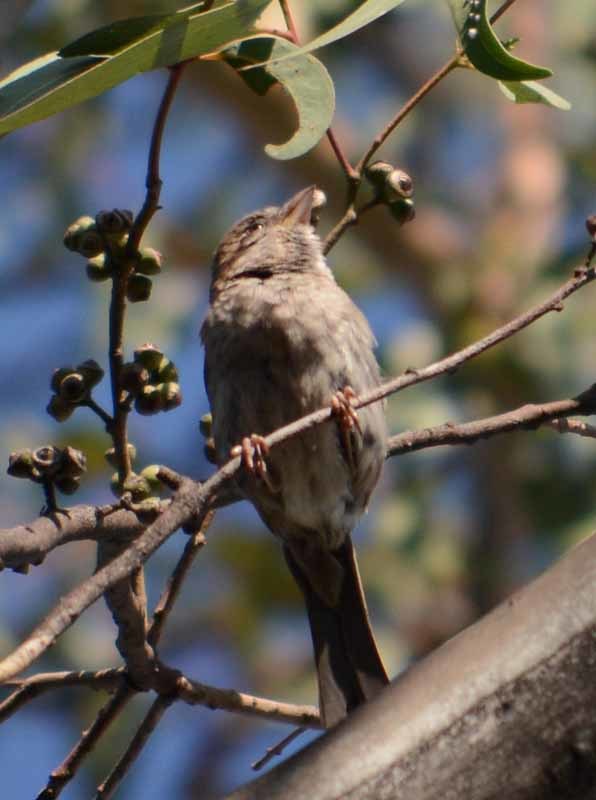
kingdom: Animalia
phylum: Chordata
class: Aves
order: Passeriformes
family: Passeridae
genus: Passer
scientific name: Passer domesticus
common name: House sparrow
